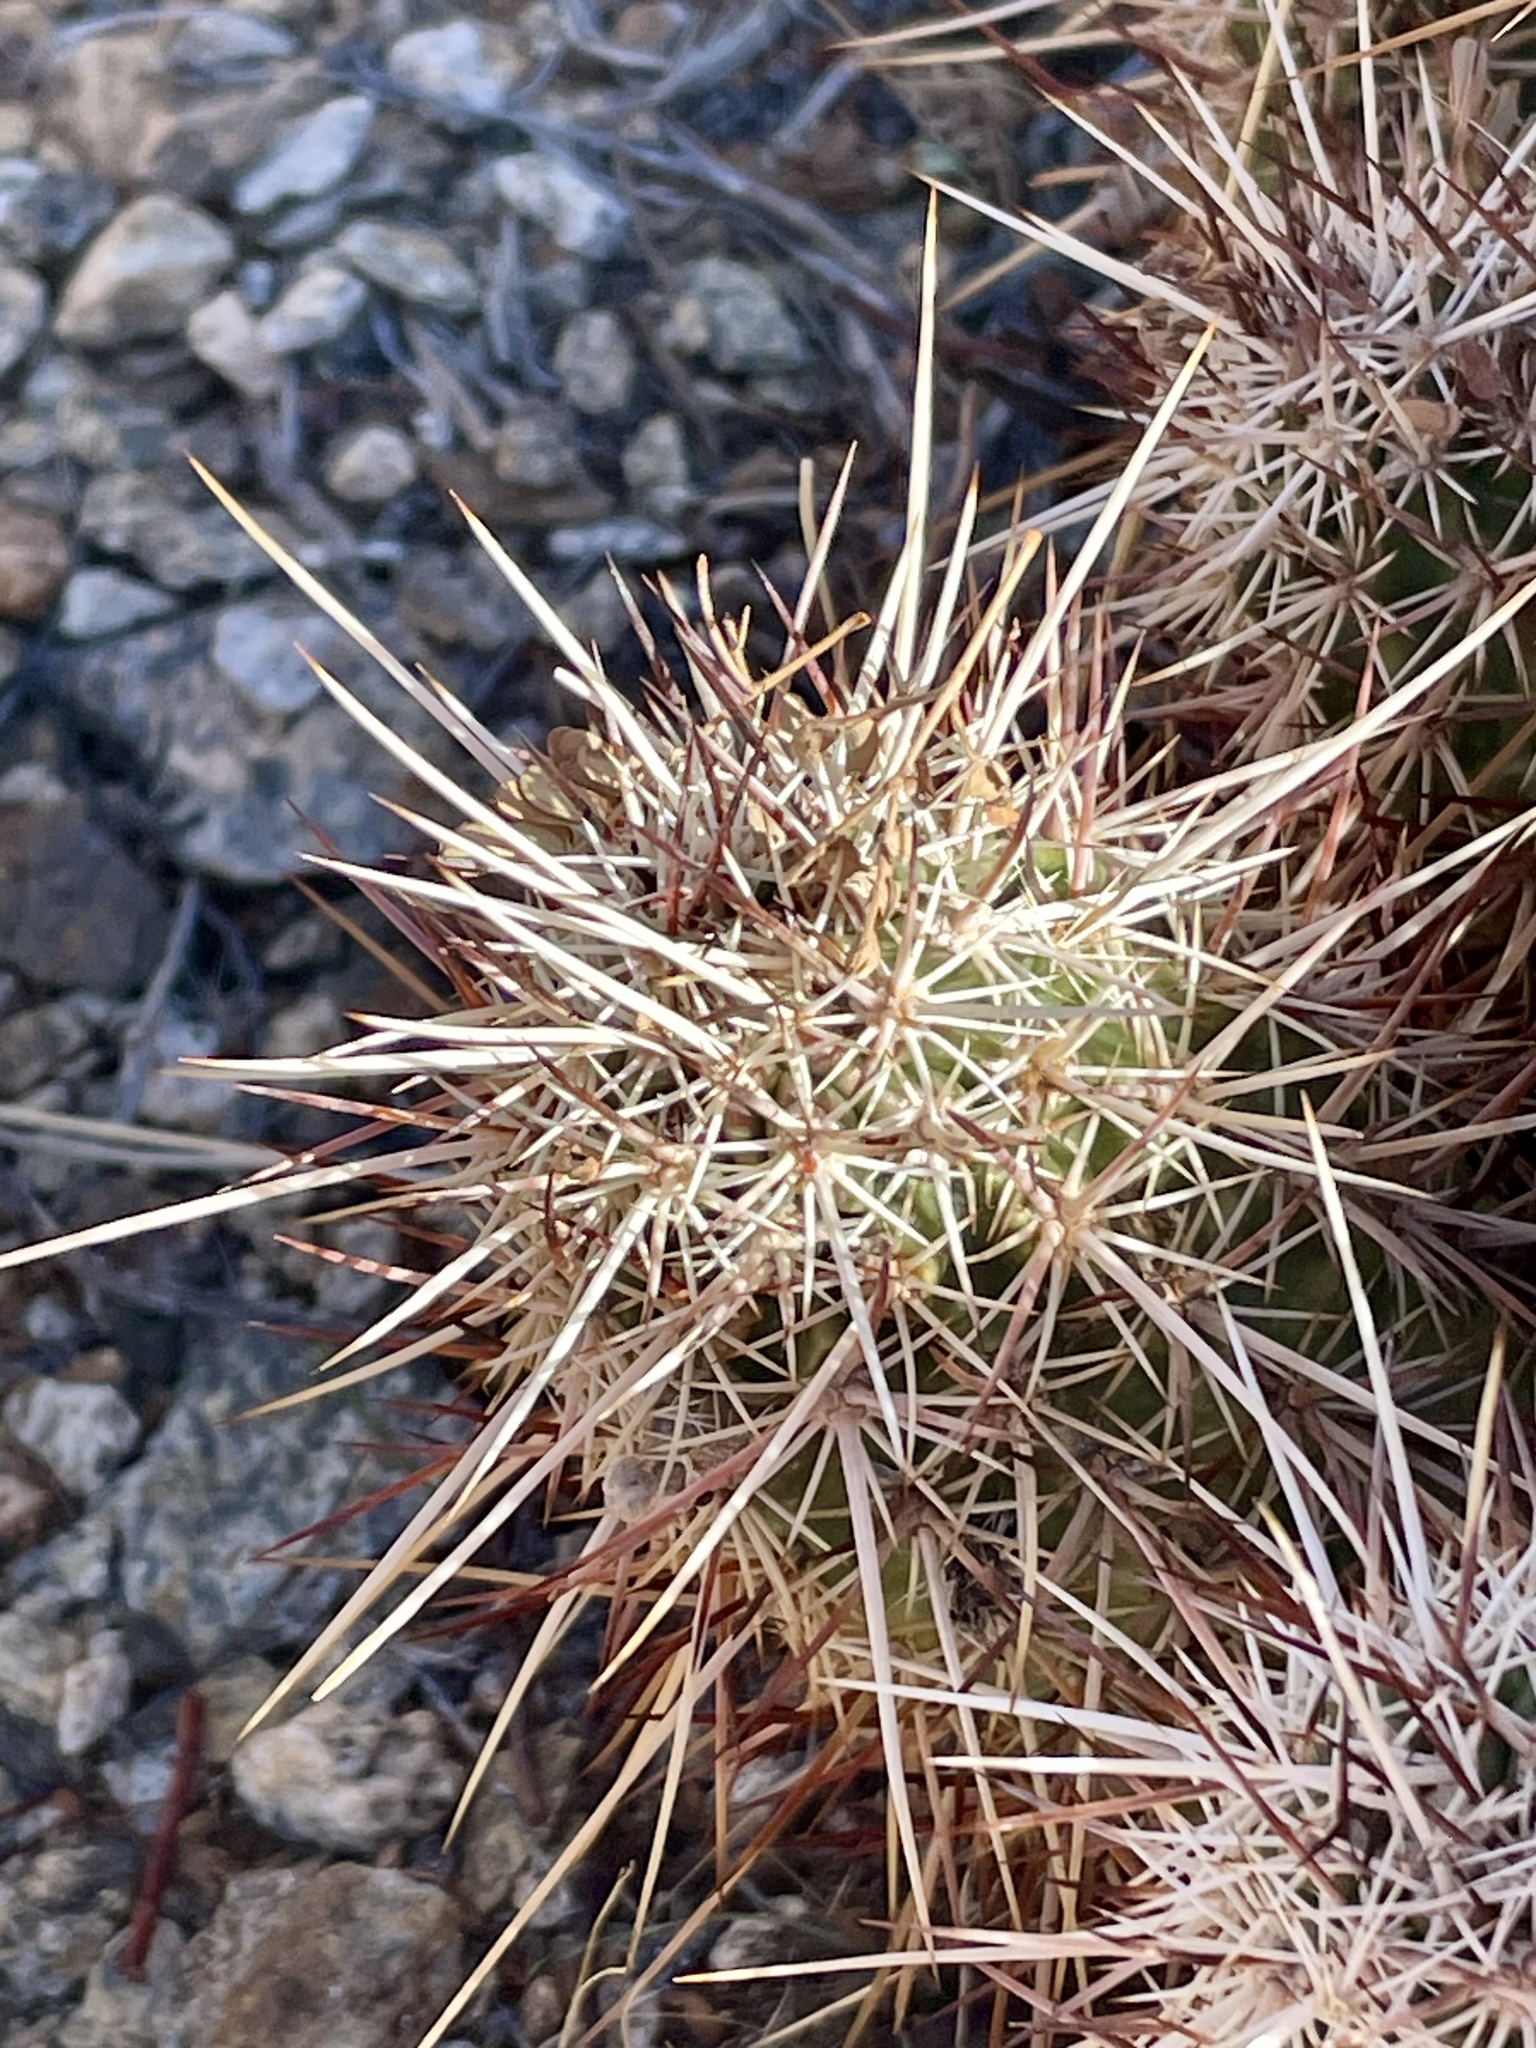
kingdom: Plantae
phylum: Tracheophyta
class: Magnoliopsida
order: Caryophyllales
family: Cactaceae
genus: Echinocereus
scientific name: Echinocereus engelmannii
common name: Engelmann's hedgehog cactus
